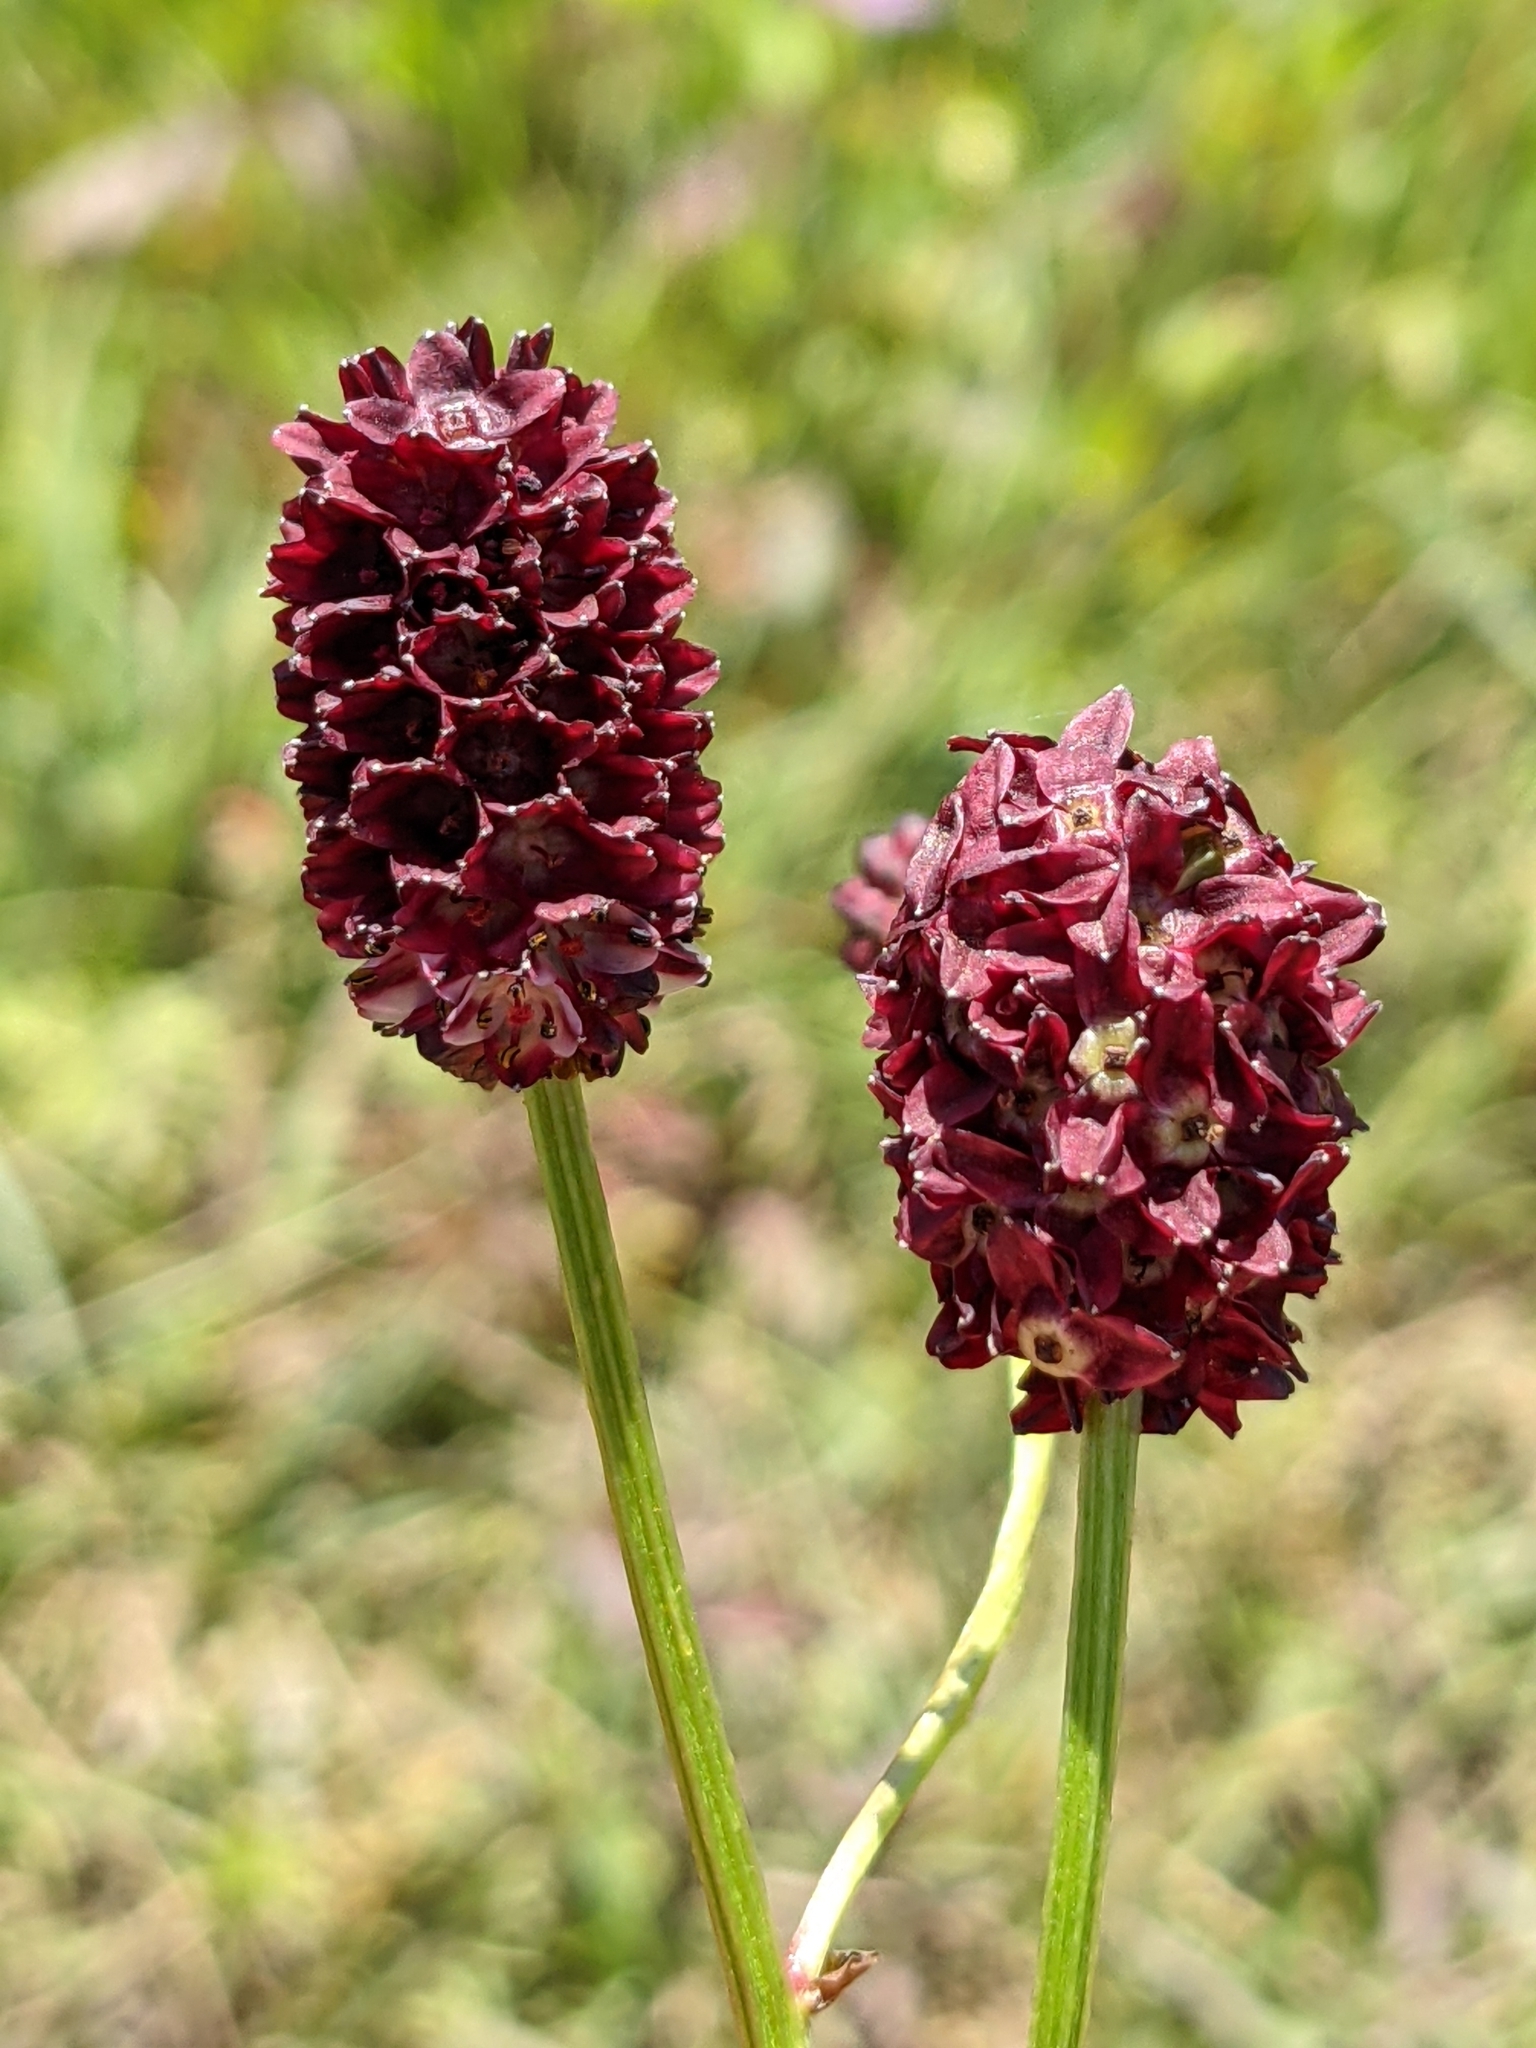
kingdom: Plantae
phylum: Tracheophyta
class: Magnoliopsida
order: Rosales
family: Rosaceae
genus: Sanguisorba
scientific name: Sanguisorba officinalis
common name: Great burnet
